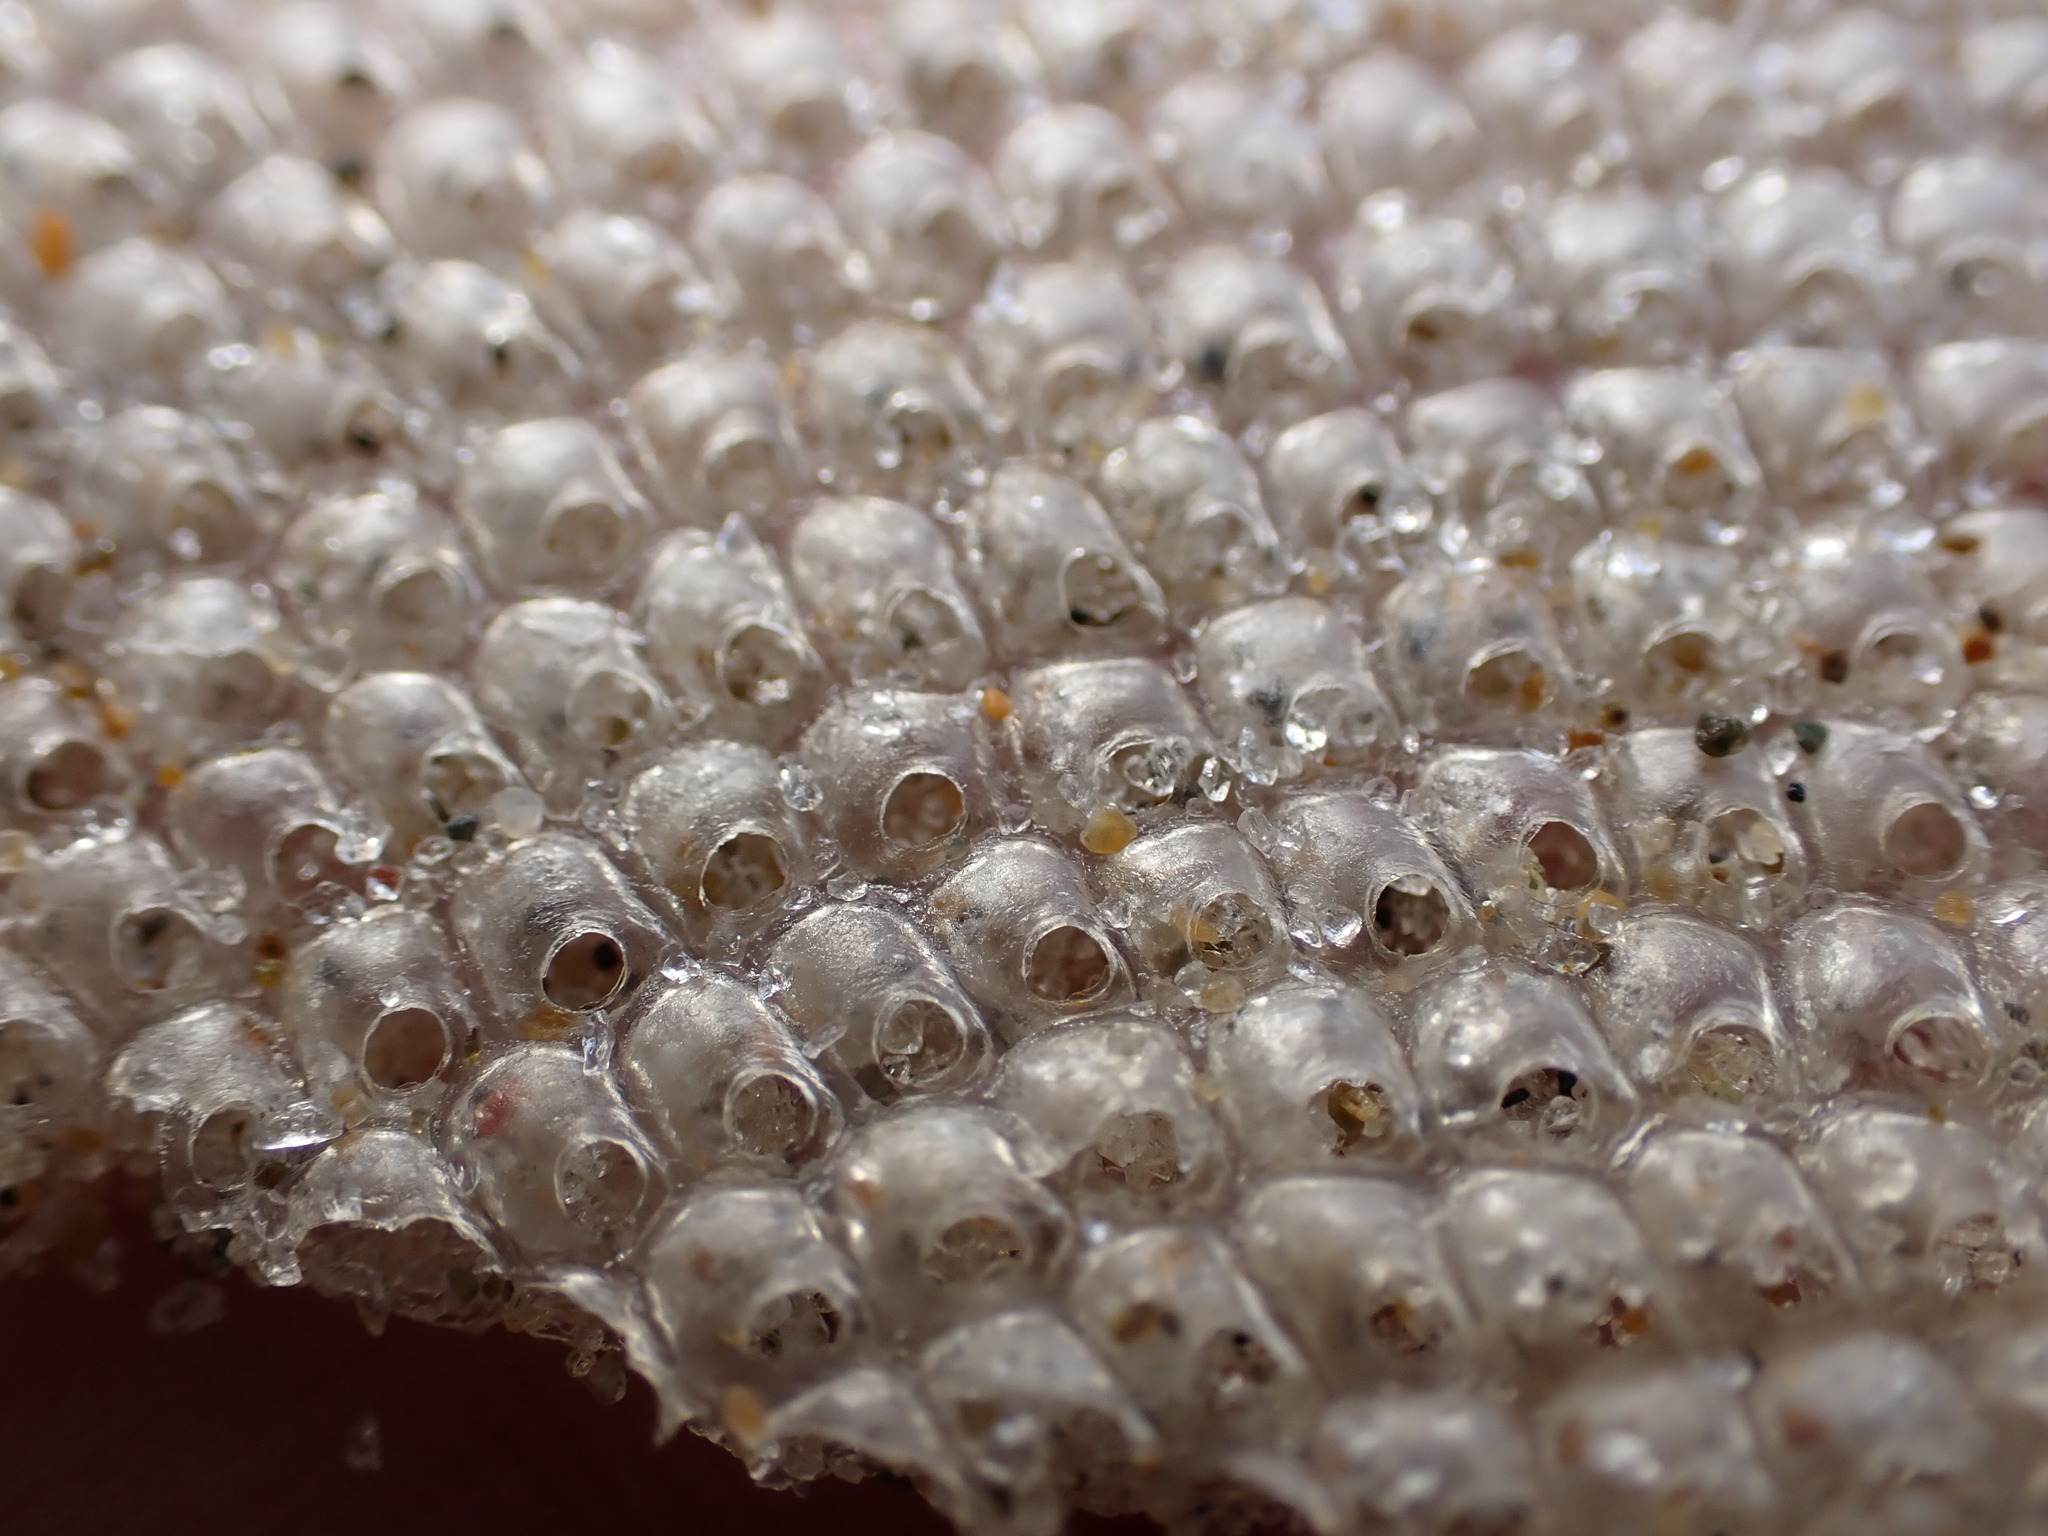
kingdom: Animalia
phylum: Mollusca
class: Gastropoda
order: Littorinimorpha
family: Tonnidae
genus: Tonna
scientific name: Tonna tankervillii
